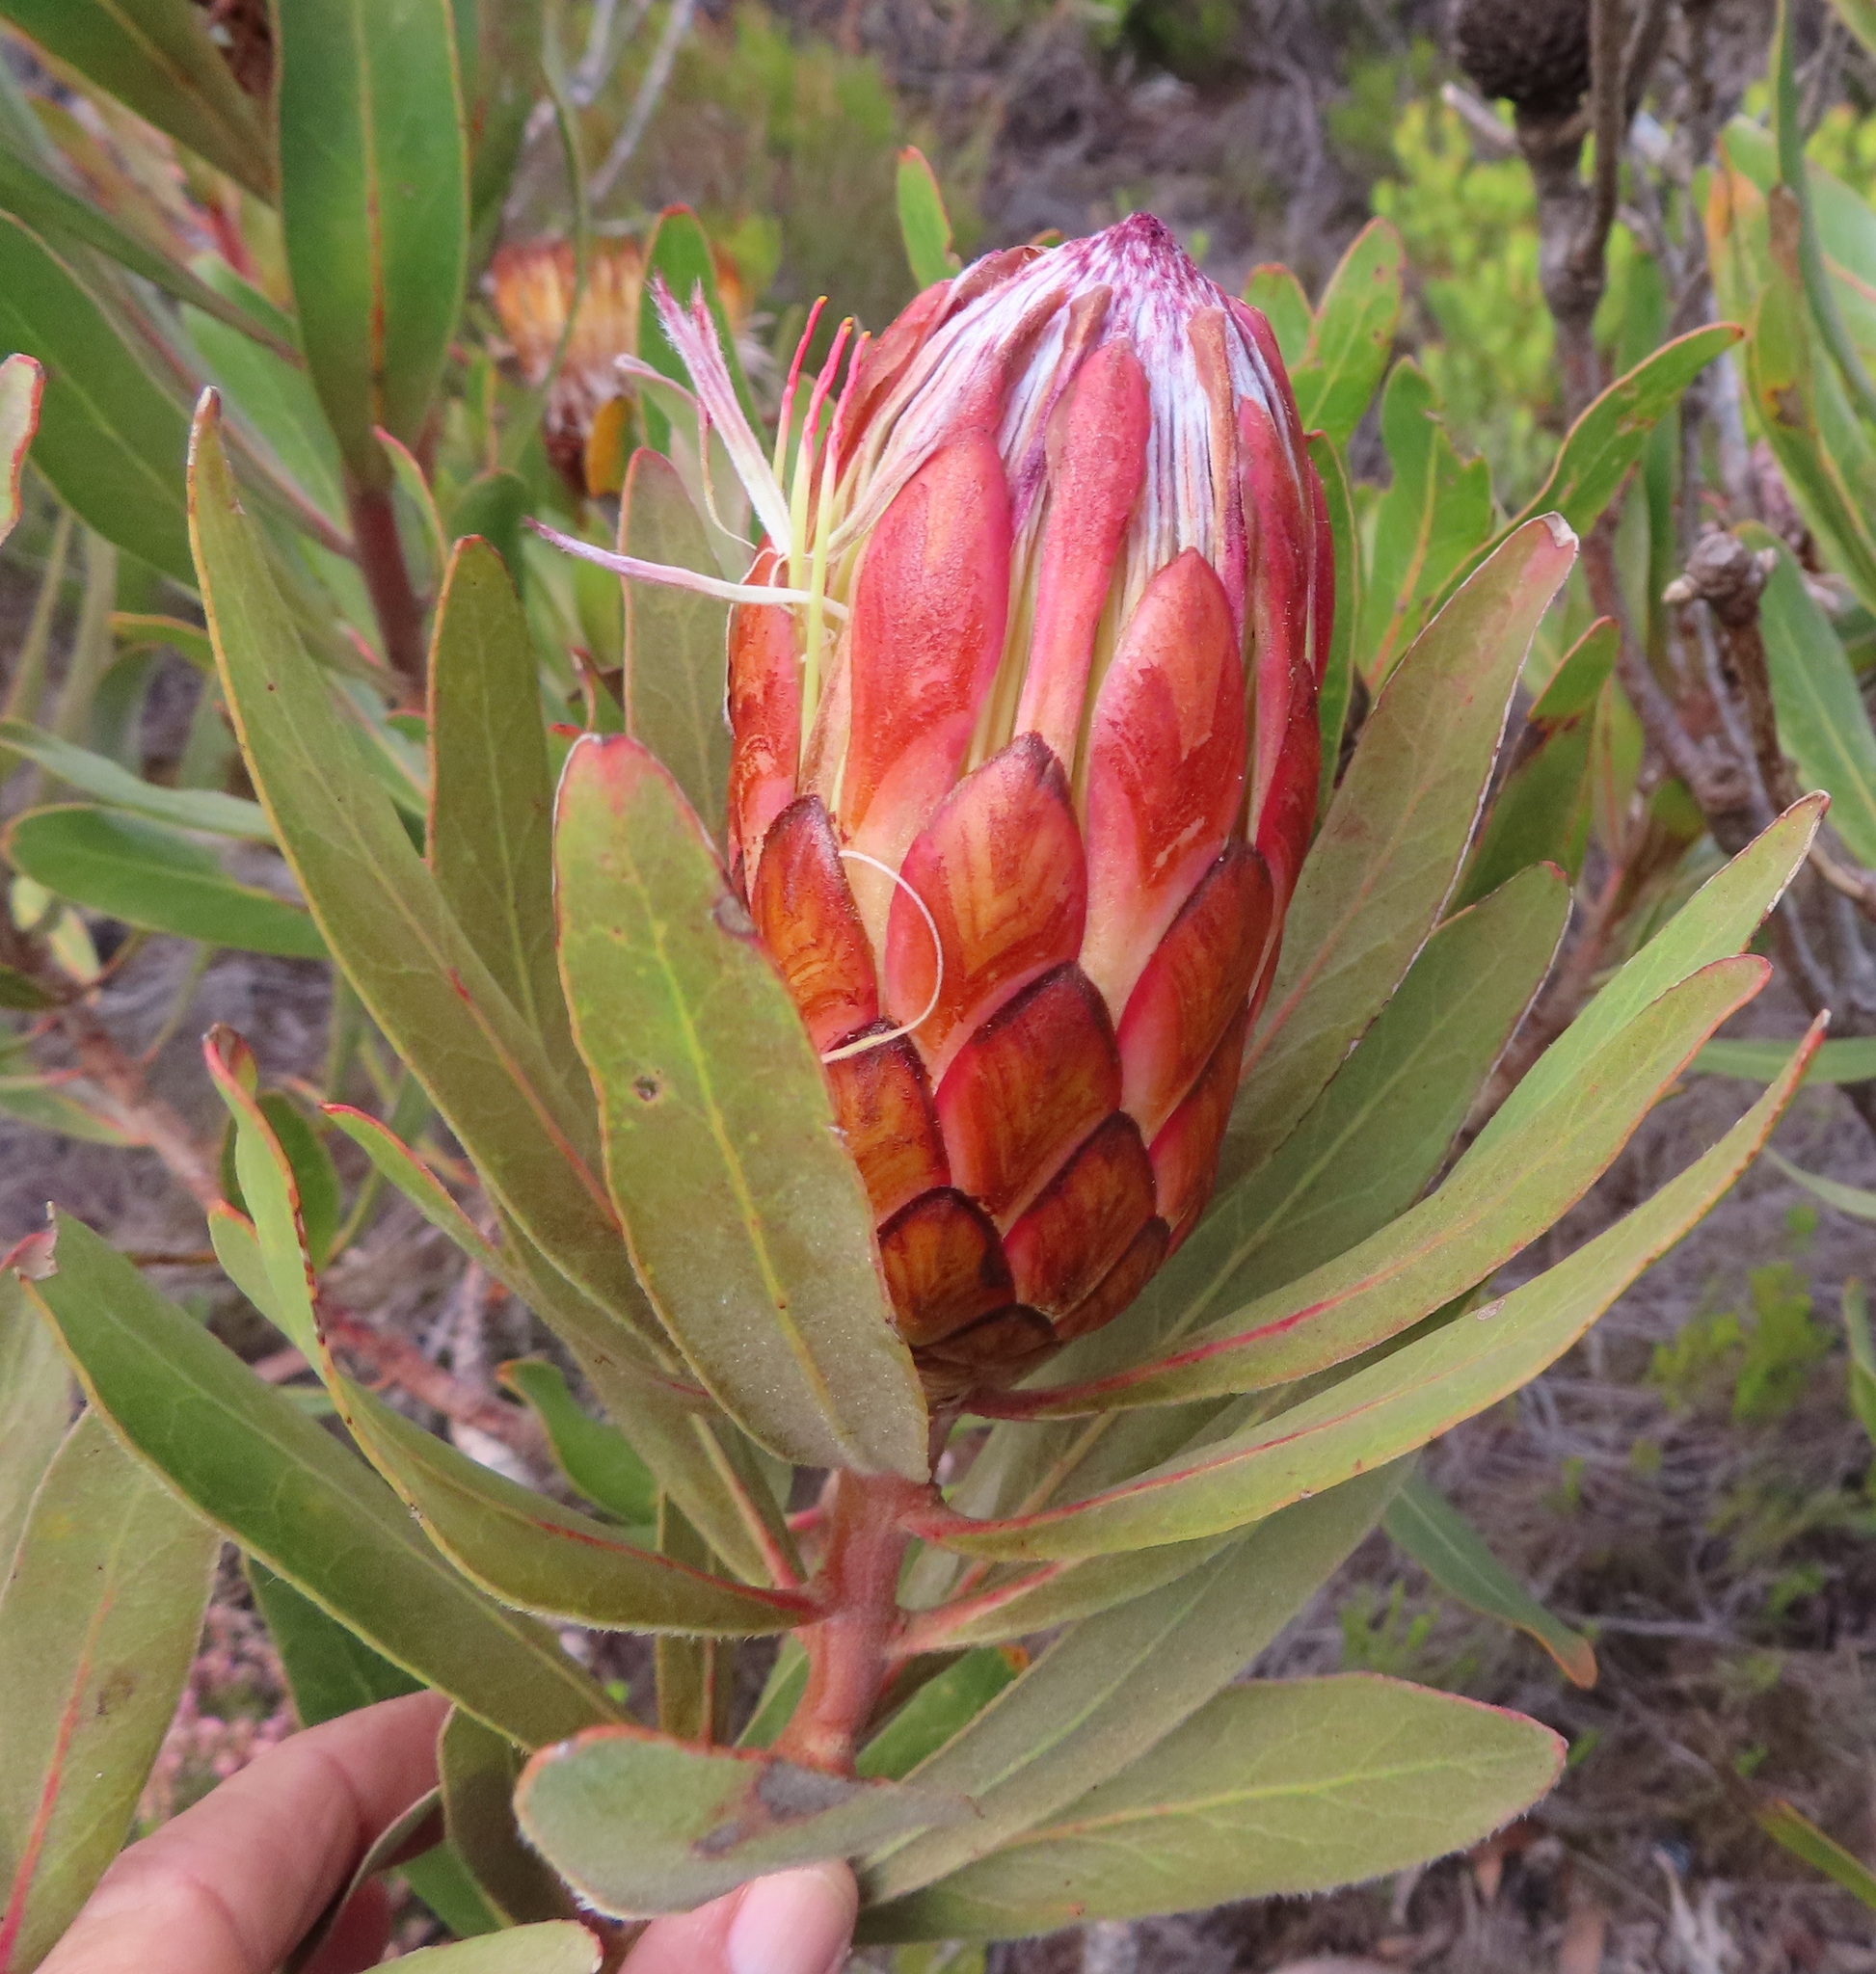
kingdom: Plantae
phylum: Tracheophyta
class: Magnoliopsida
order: Proteales
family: Proteaceae
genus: Protea
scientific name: Protea susannae
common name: Foetid-leaf sugarbush
